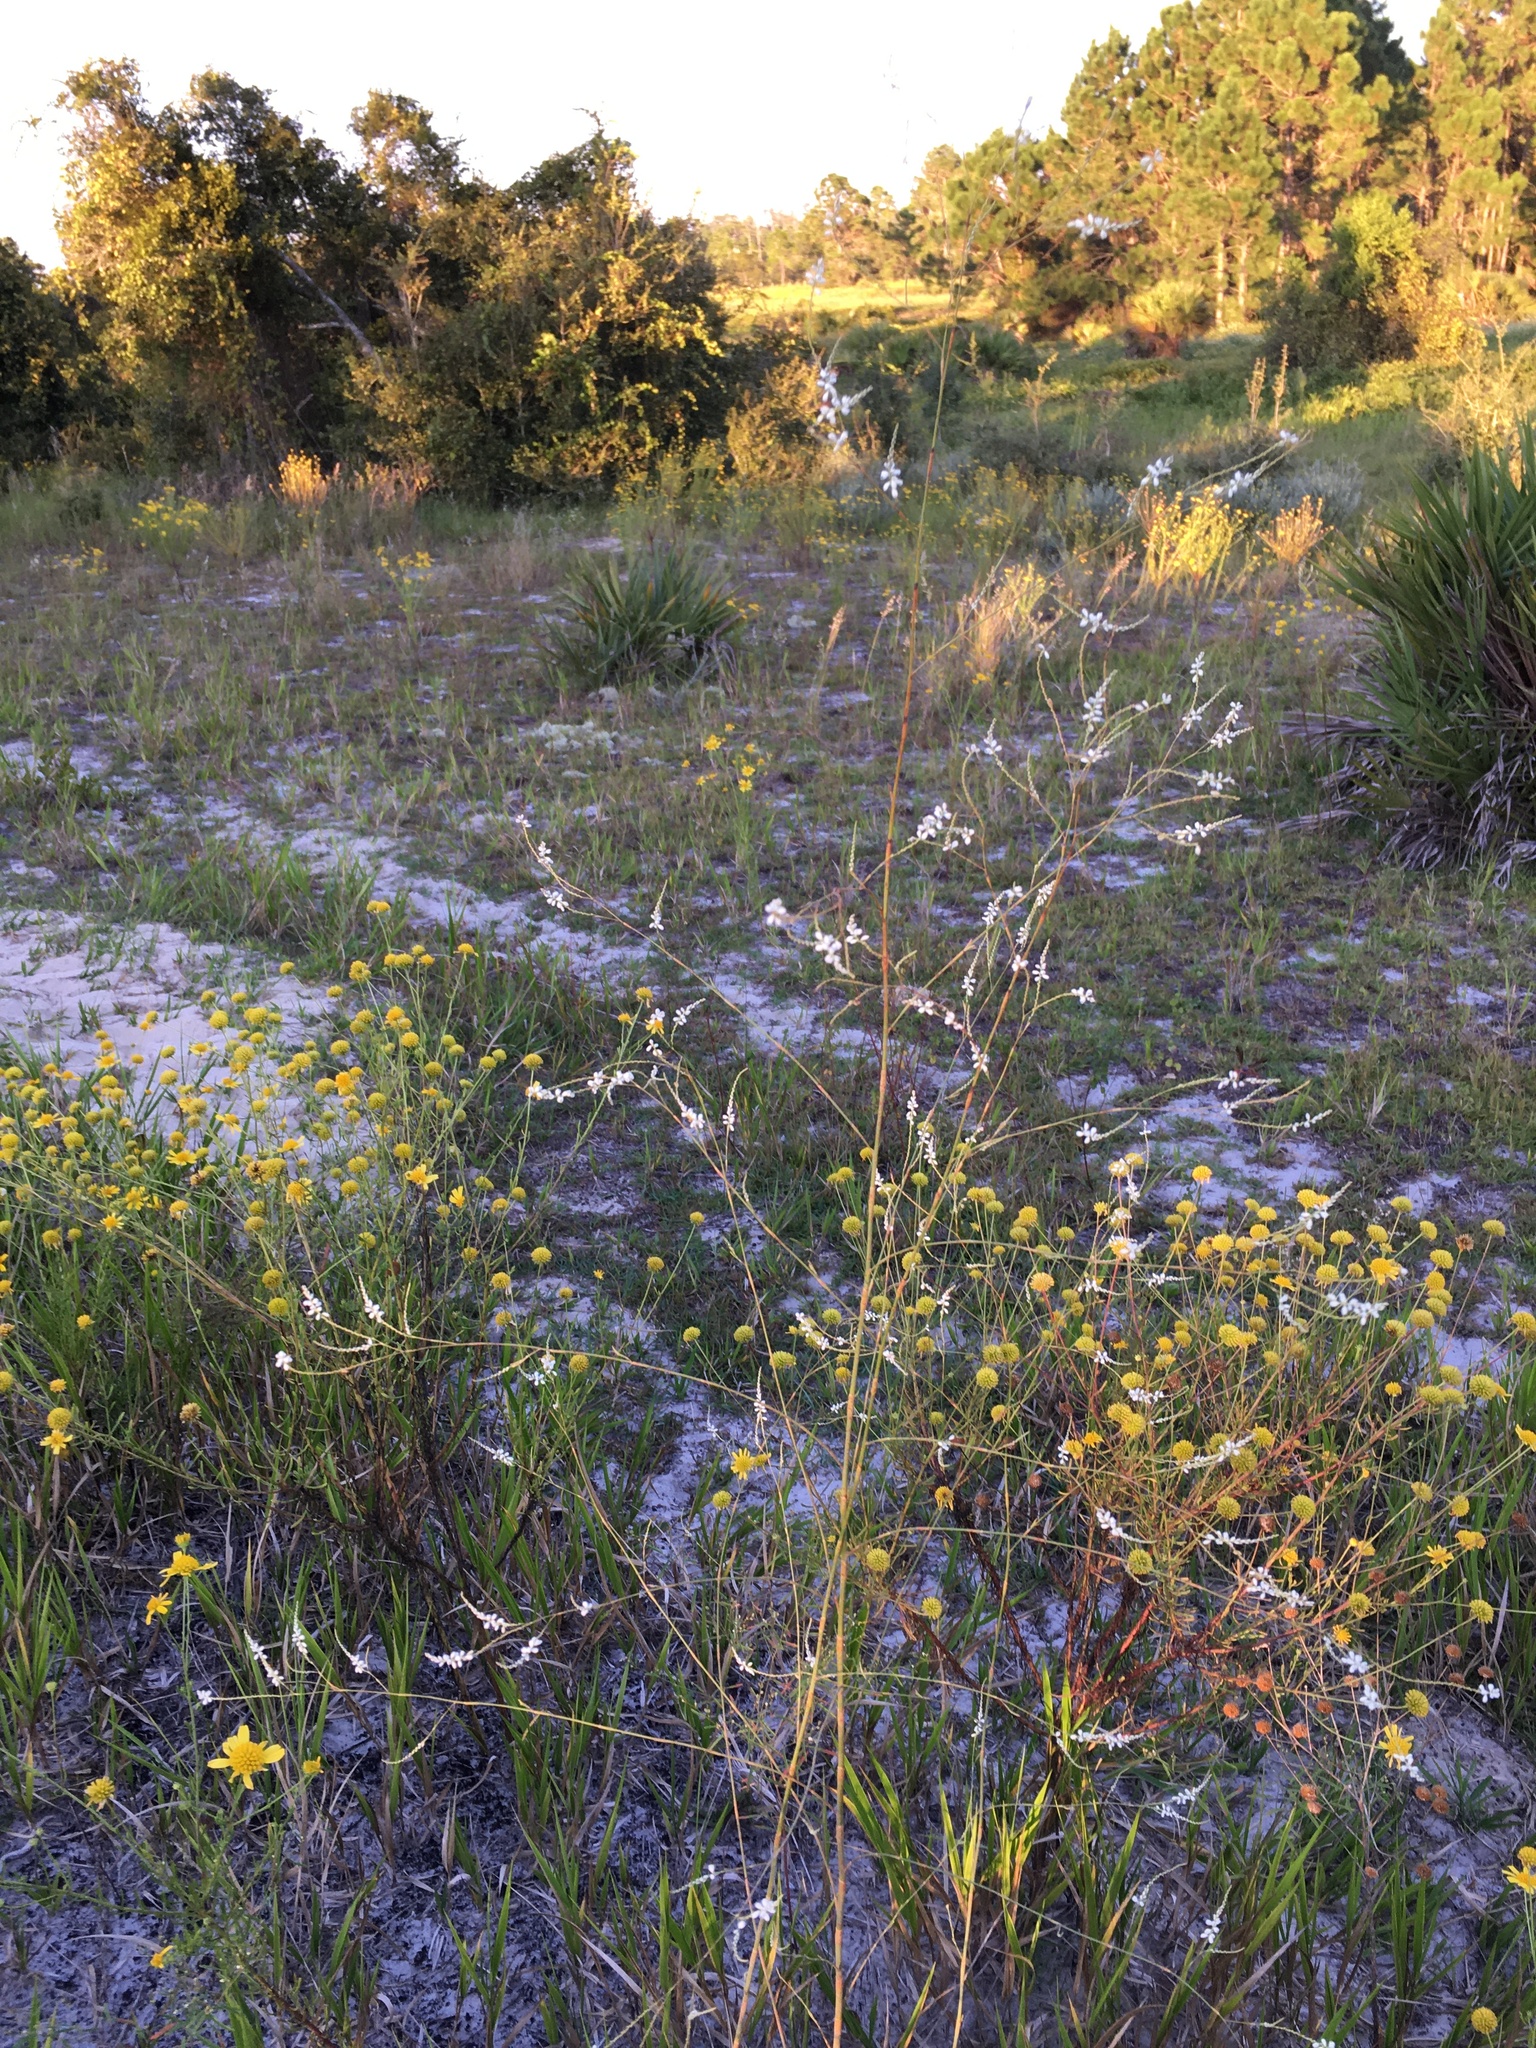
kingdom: Plantae
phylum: Tracheophyta
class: Magnoliopsida
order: Caryophyllales
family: Polygonaceae
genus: Polygonella
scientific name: Polygonella gracilis
